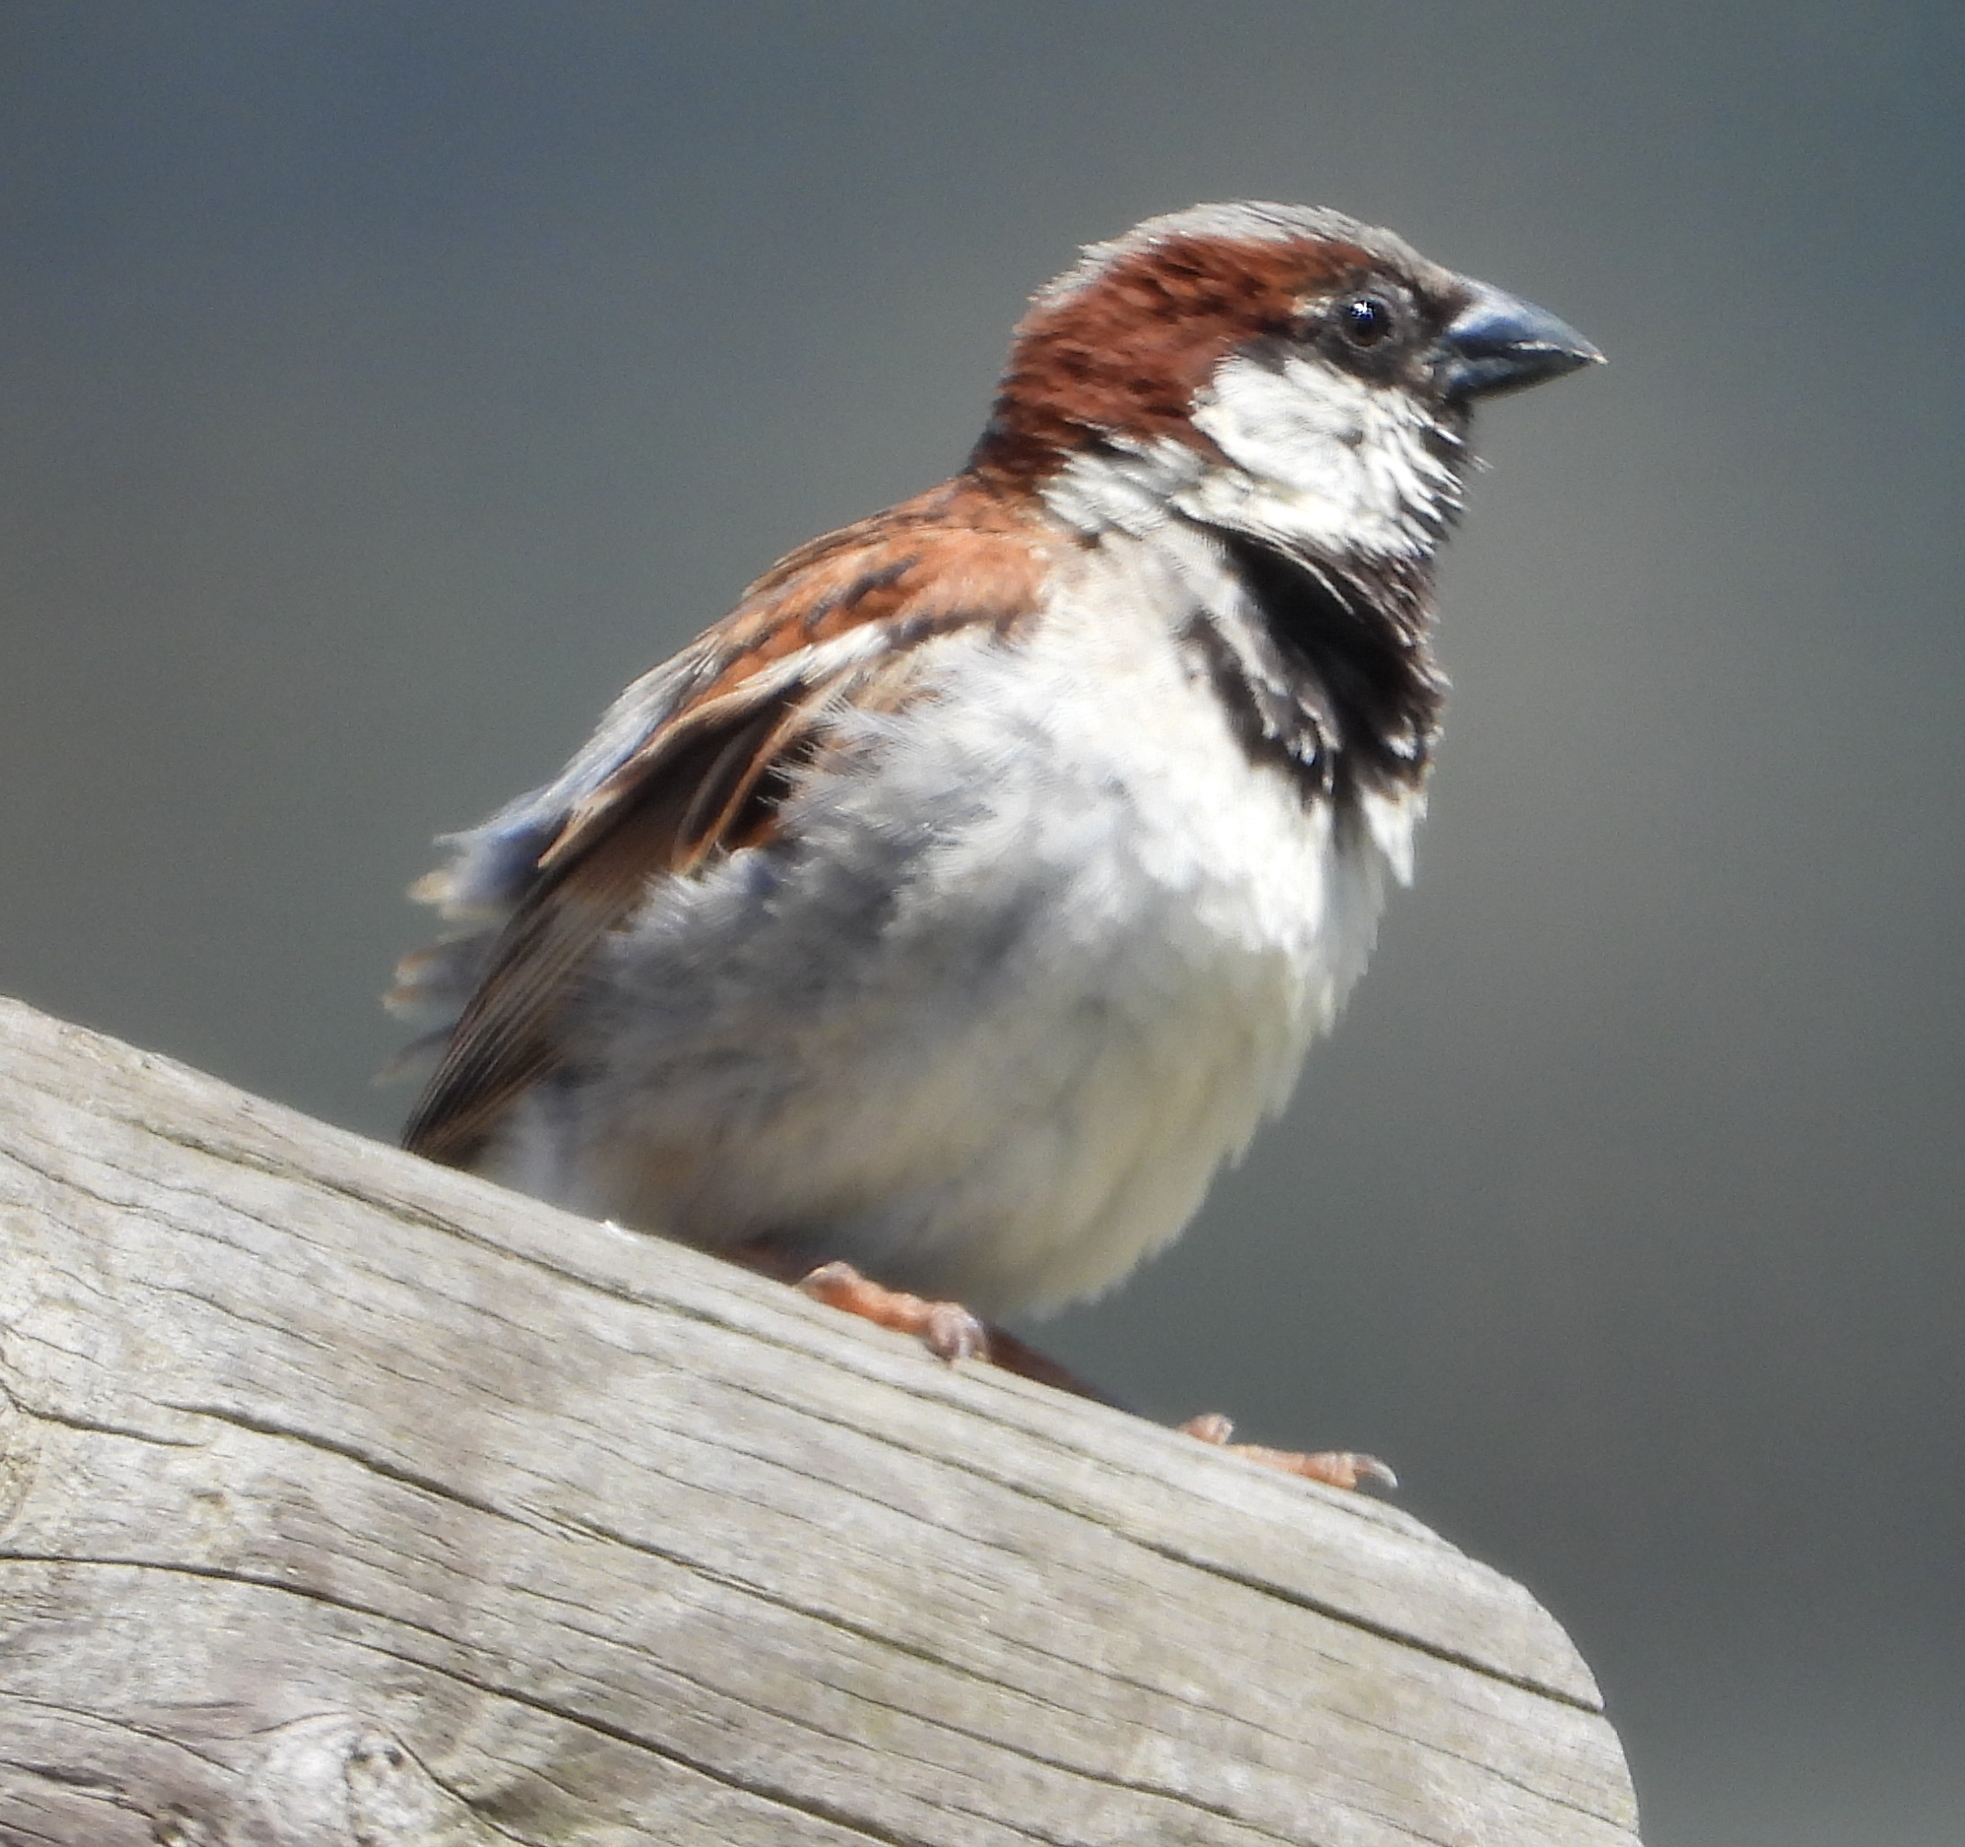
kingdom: Animalia
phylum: Chordata
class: Aves
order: Passeriformes
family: Passeridae
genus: Passer
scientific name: Passer domesticus
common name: House sparrow
